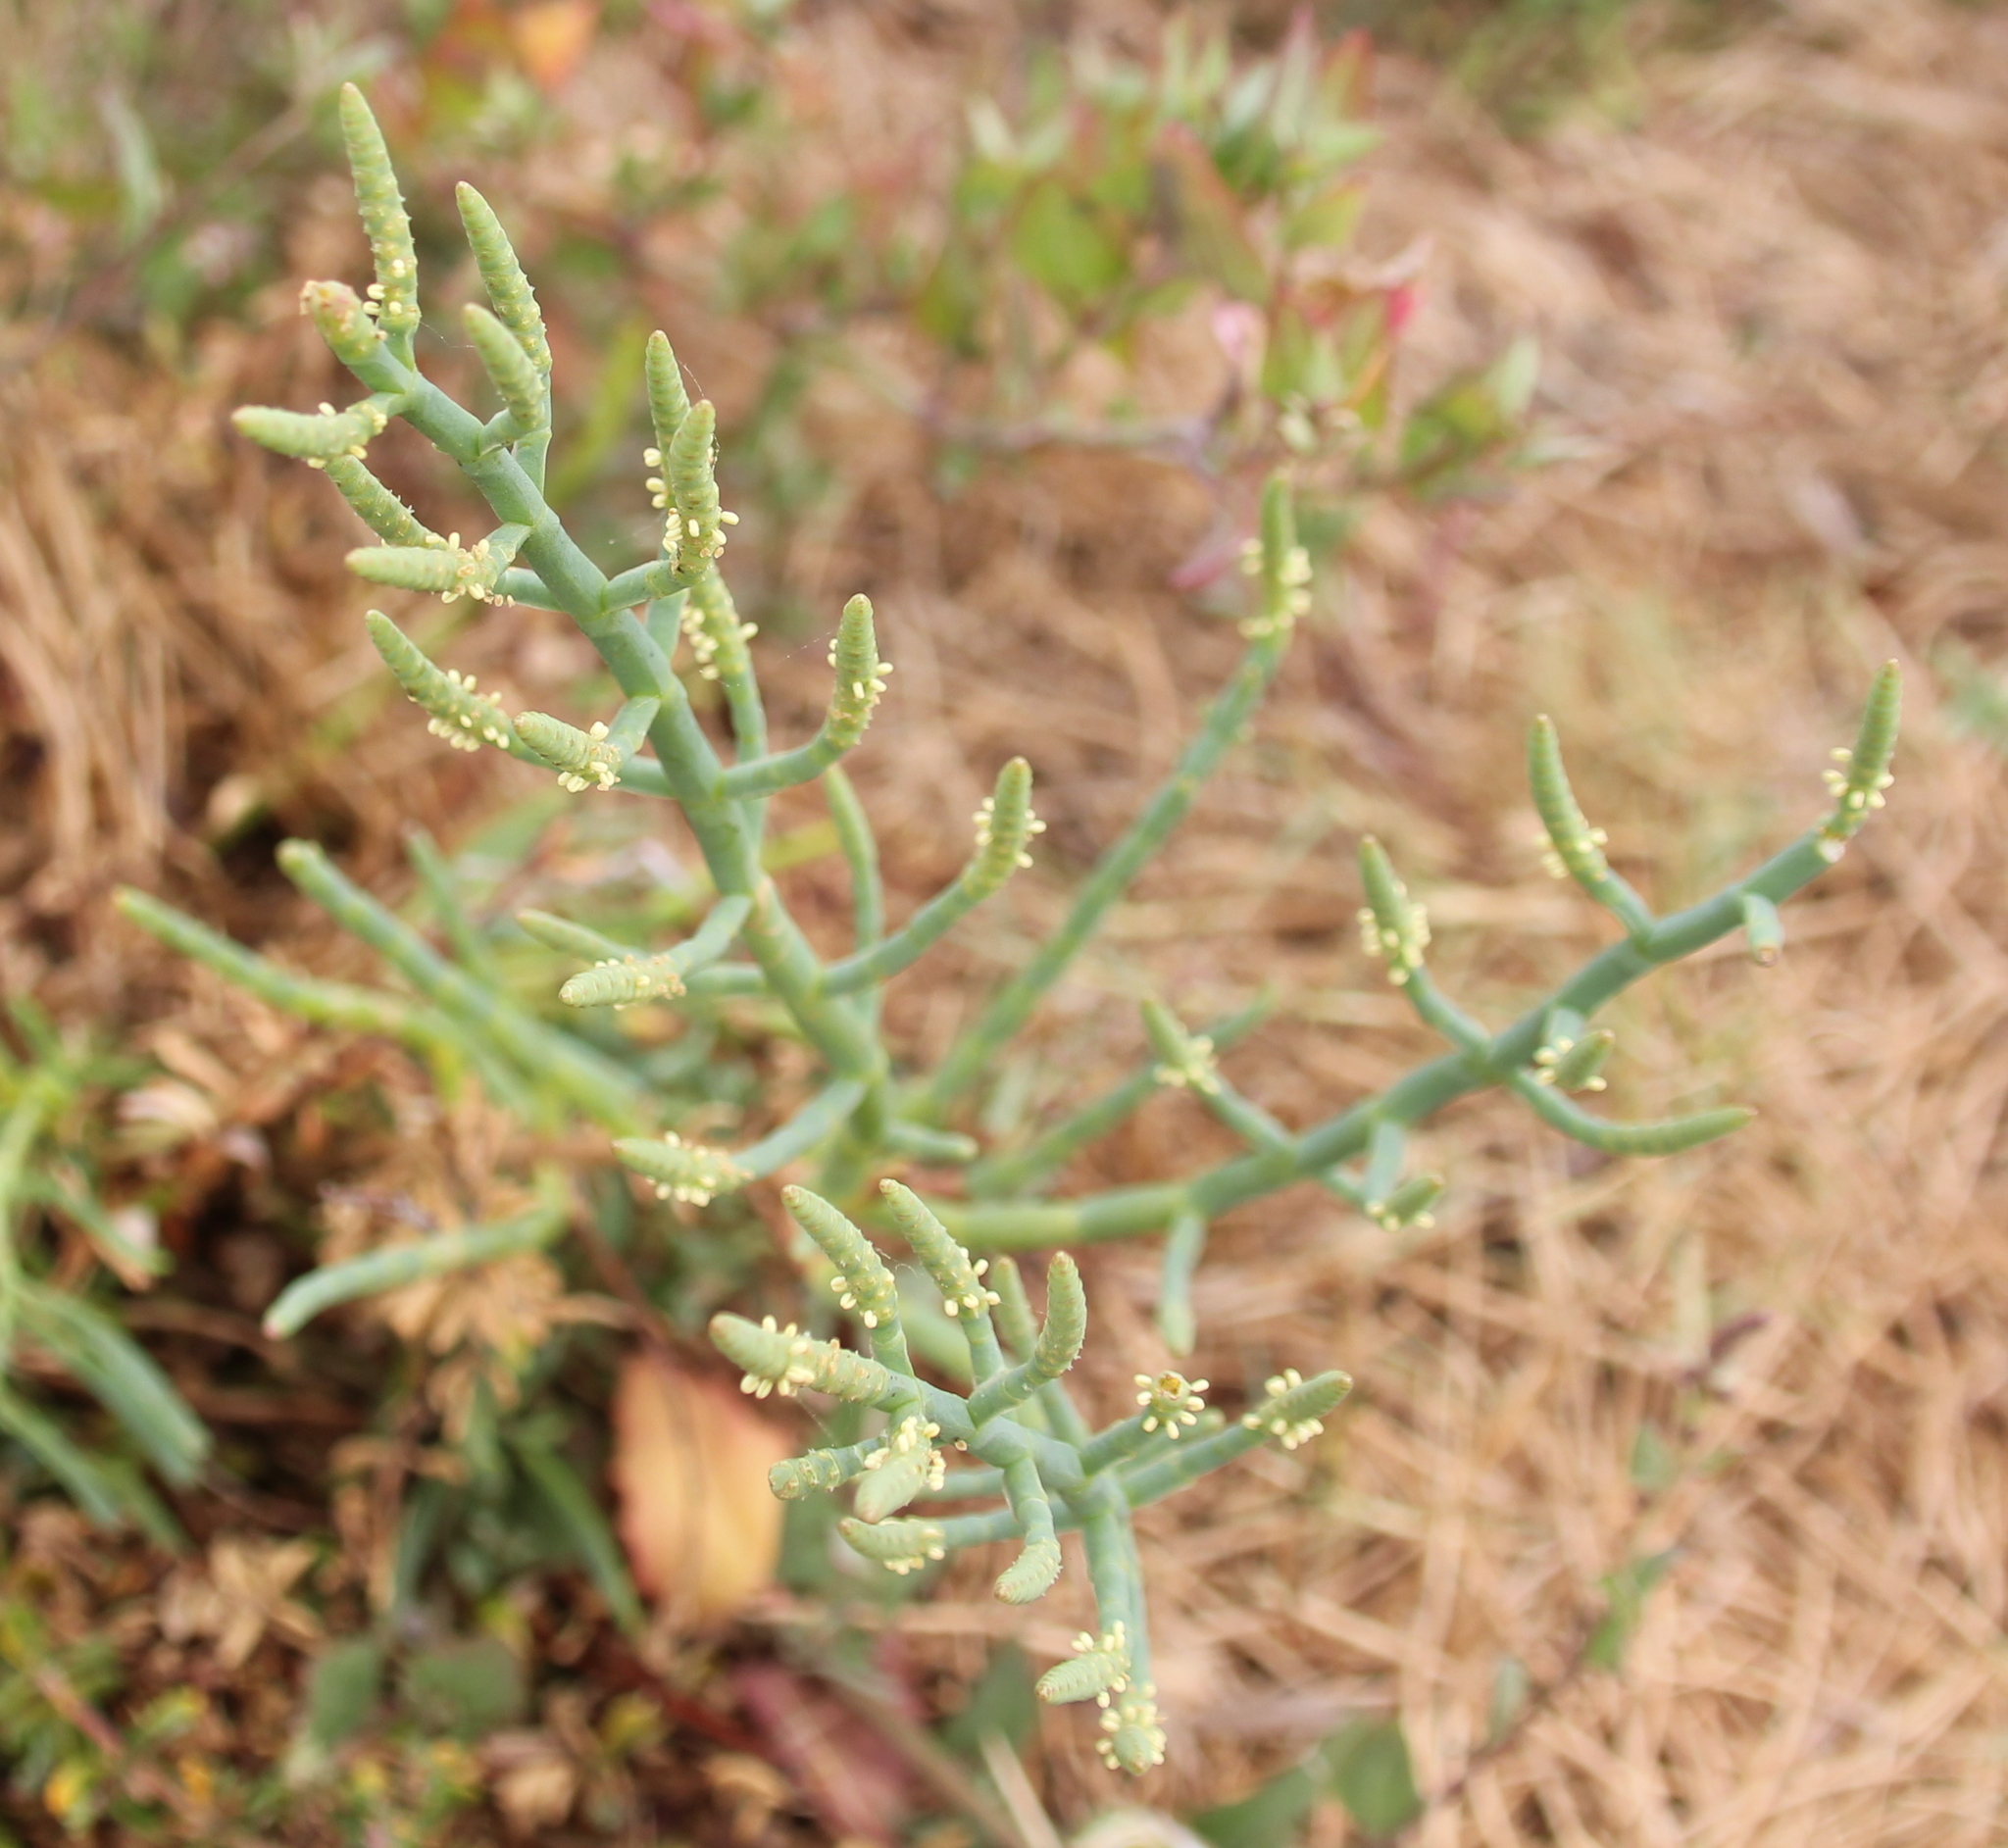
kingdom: Plantae
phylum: Tracheophyta
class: Magnoliopsida
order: Caryophyllales
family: Amaranthaceae
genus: Arthroceras
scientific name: Arthroceras subterminale
